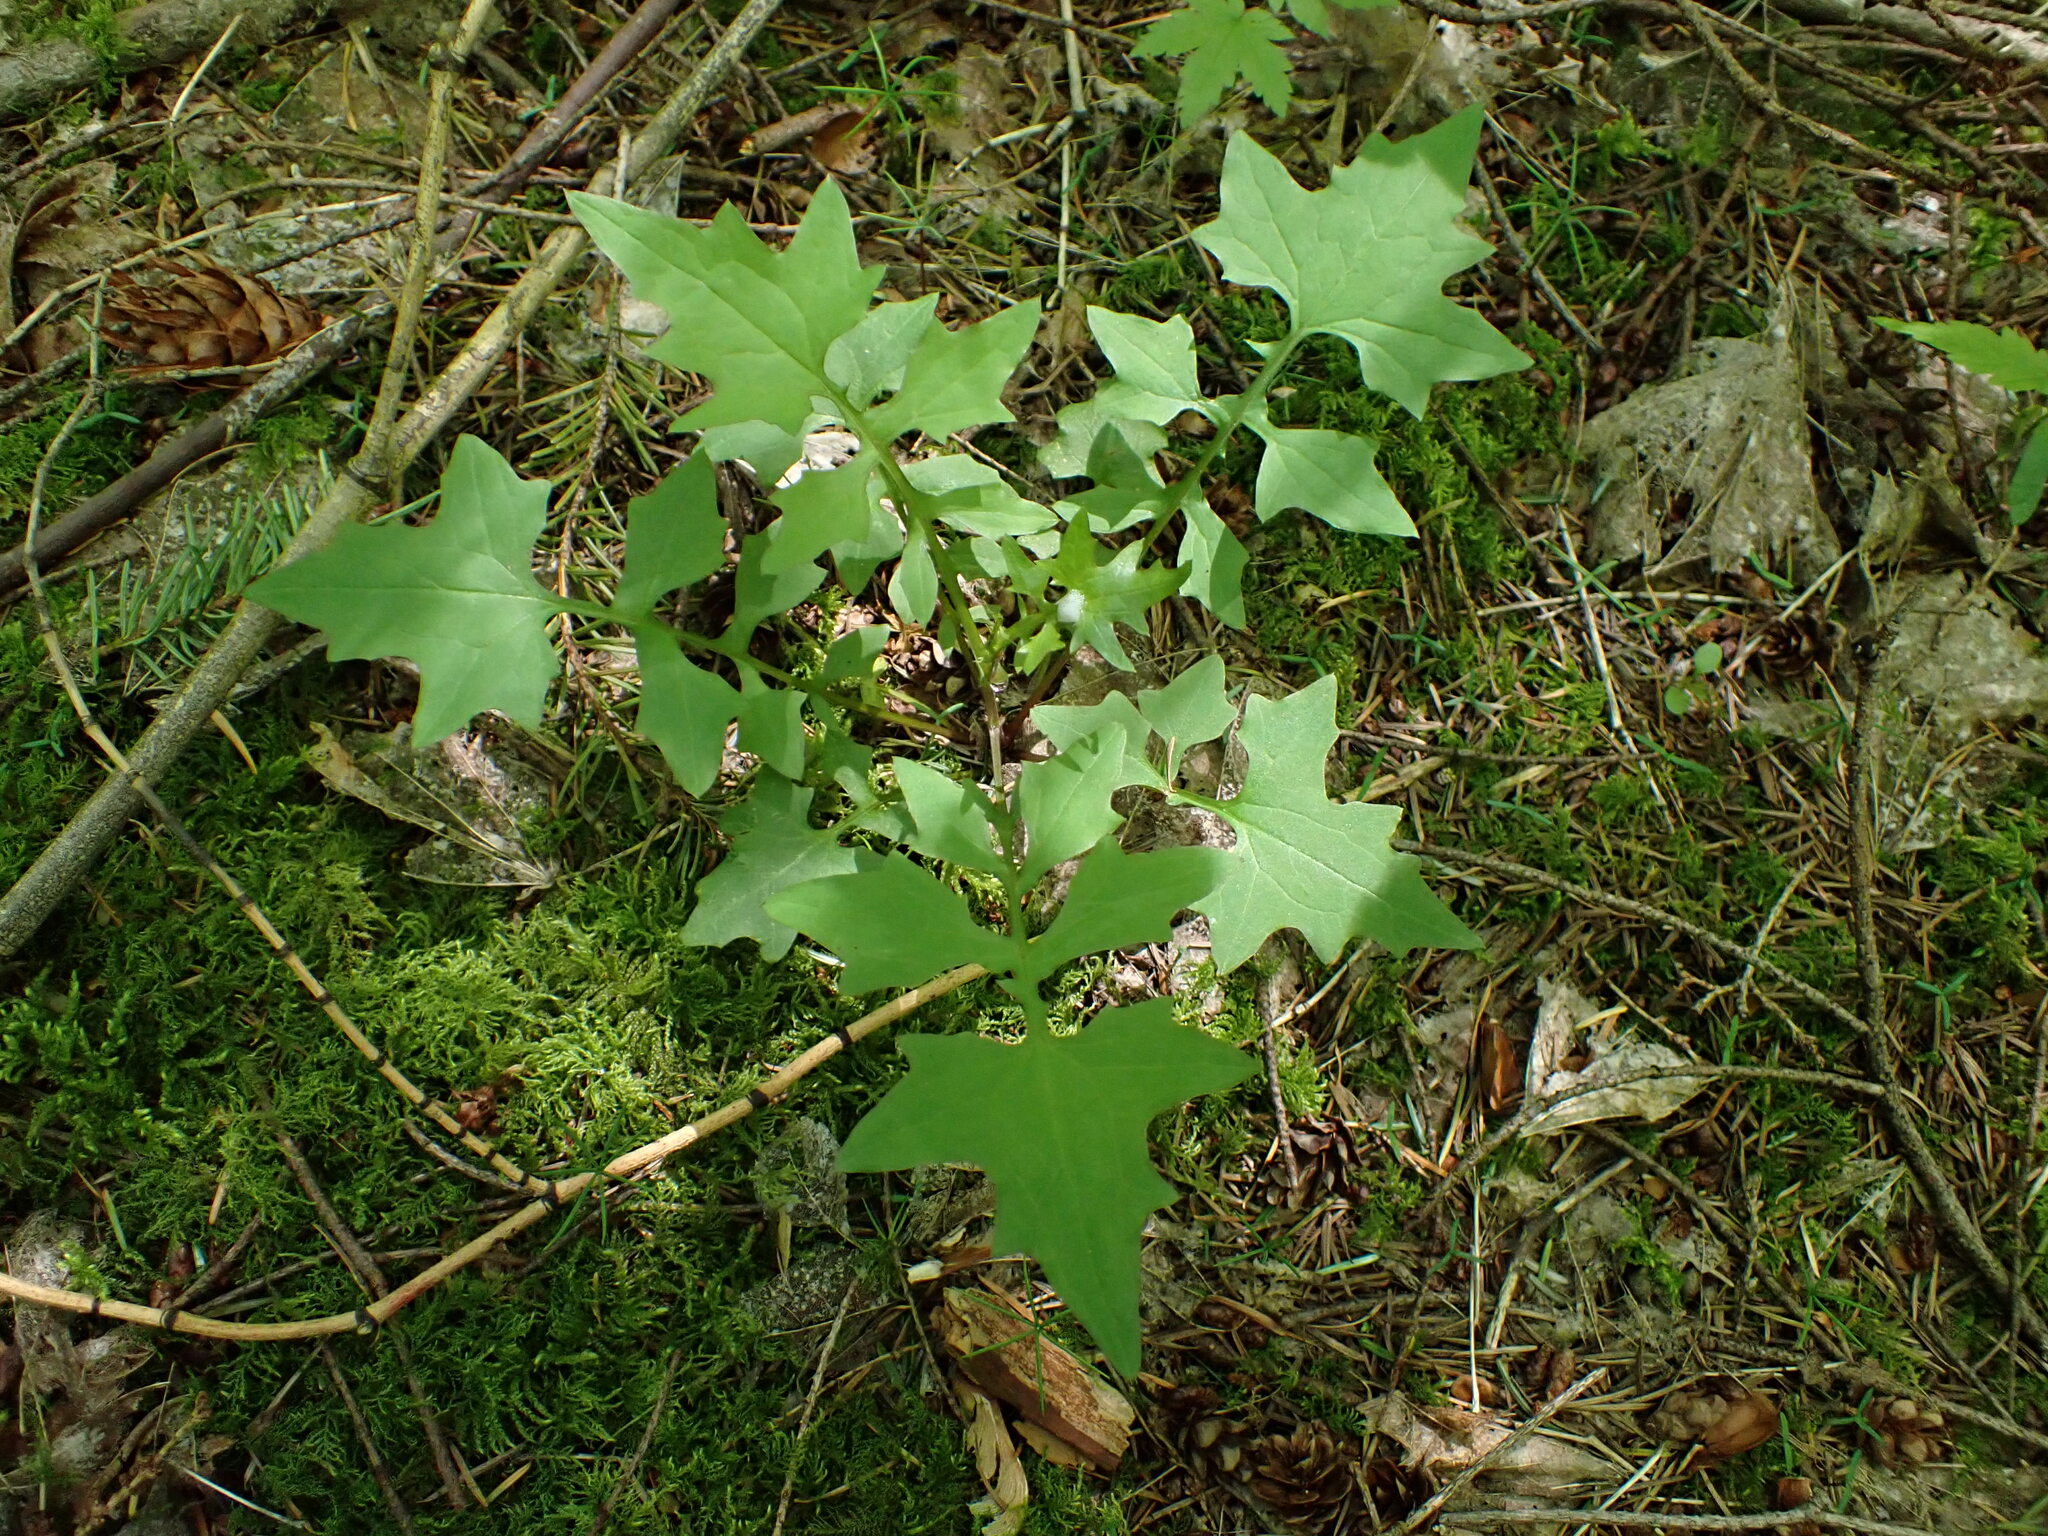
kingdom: Plantae
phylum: Tracheophyta
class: Magnoliopsida
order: Asterales
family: Asteraceae
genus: Mycelis
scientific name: Mycelis muralis
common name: Wall lettuce
